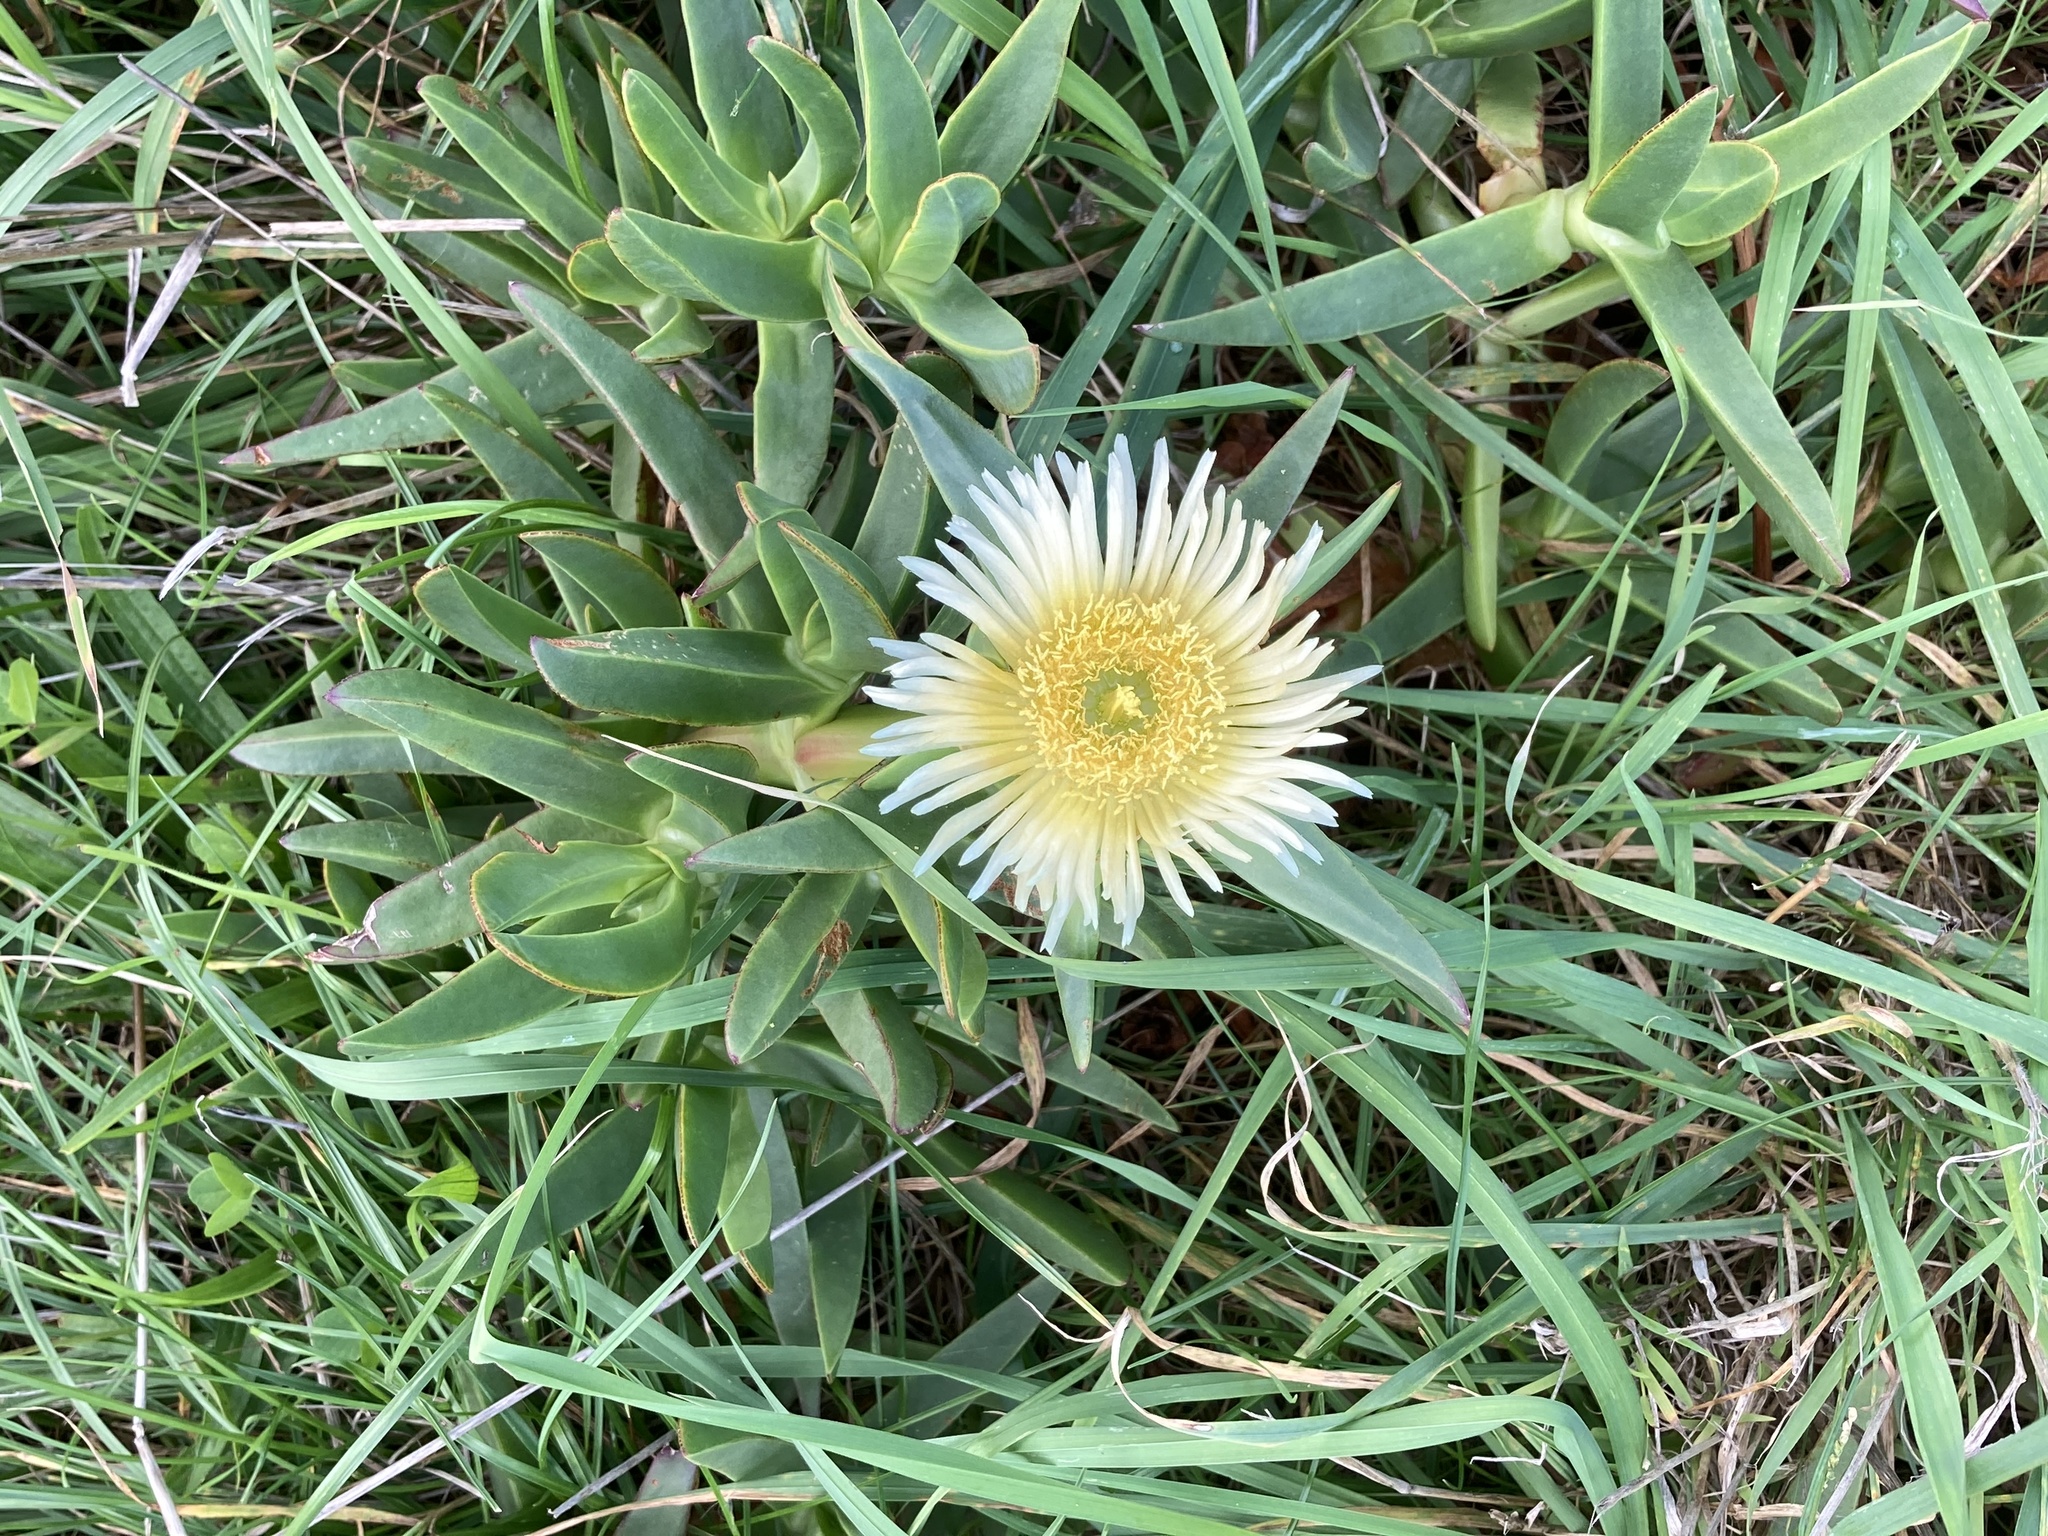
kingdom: Plantae
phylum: Tracheophyta
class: Magnoliopsida
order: Caryophyllales
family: Aizoaceae
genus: Carpobrotus
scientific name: Carpobrotus edulis
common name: Hottentot-fig
